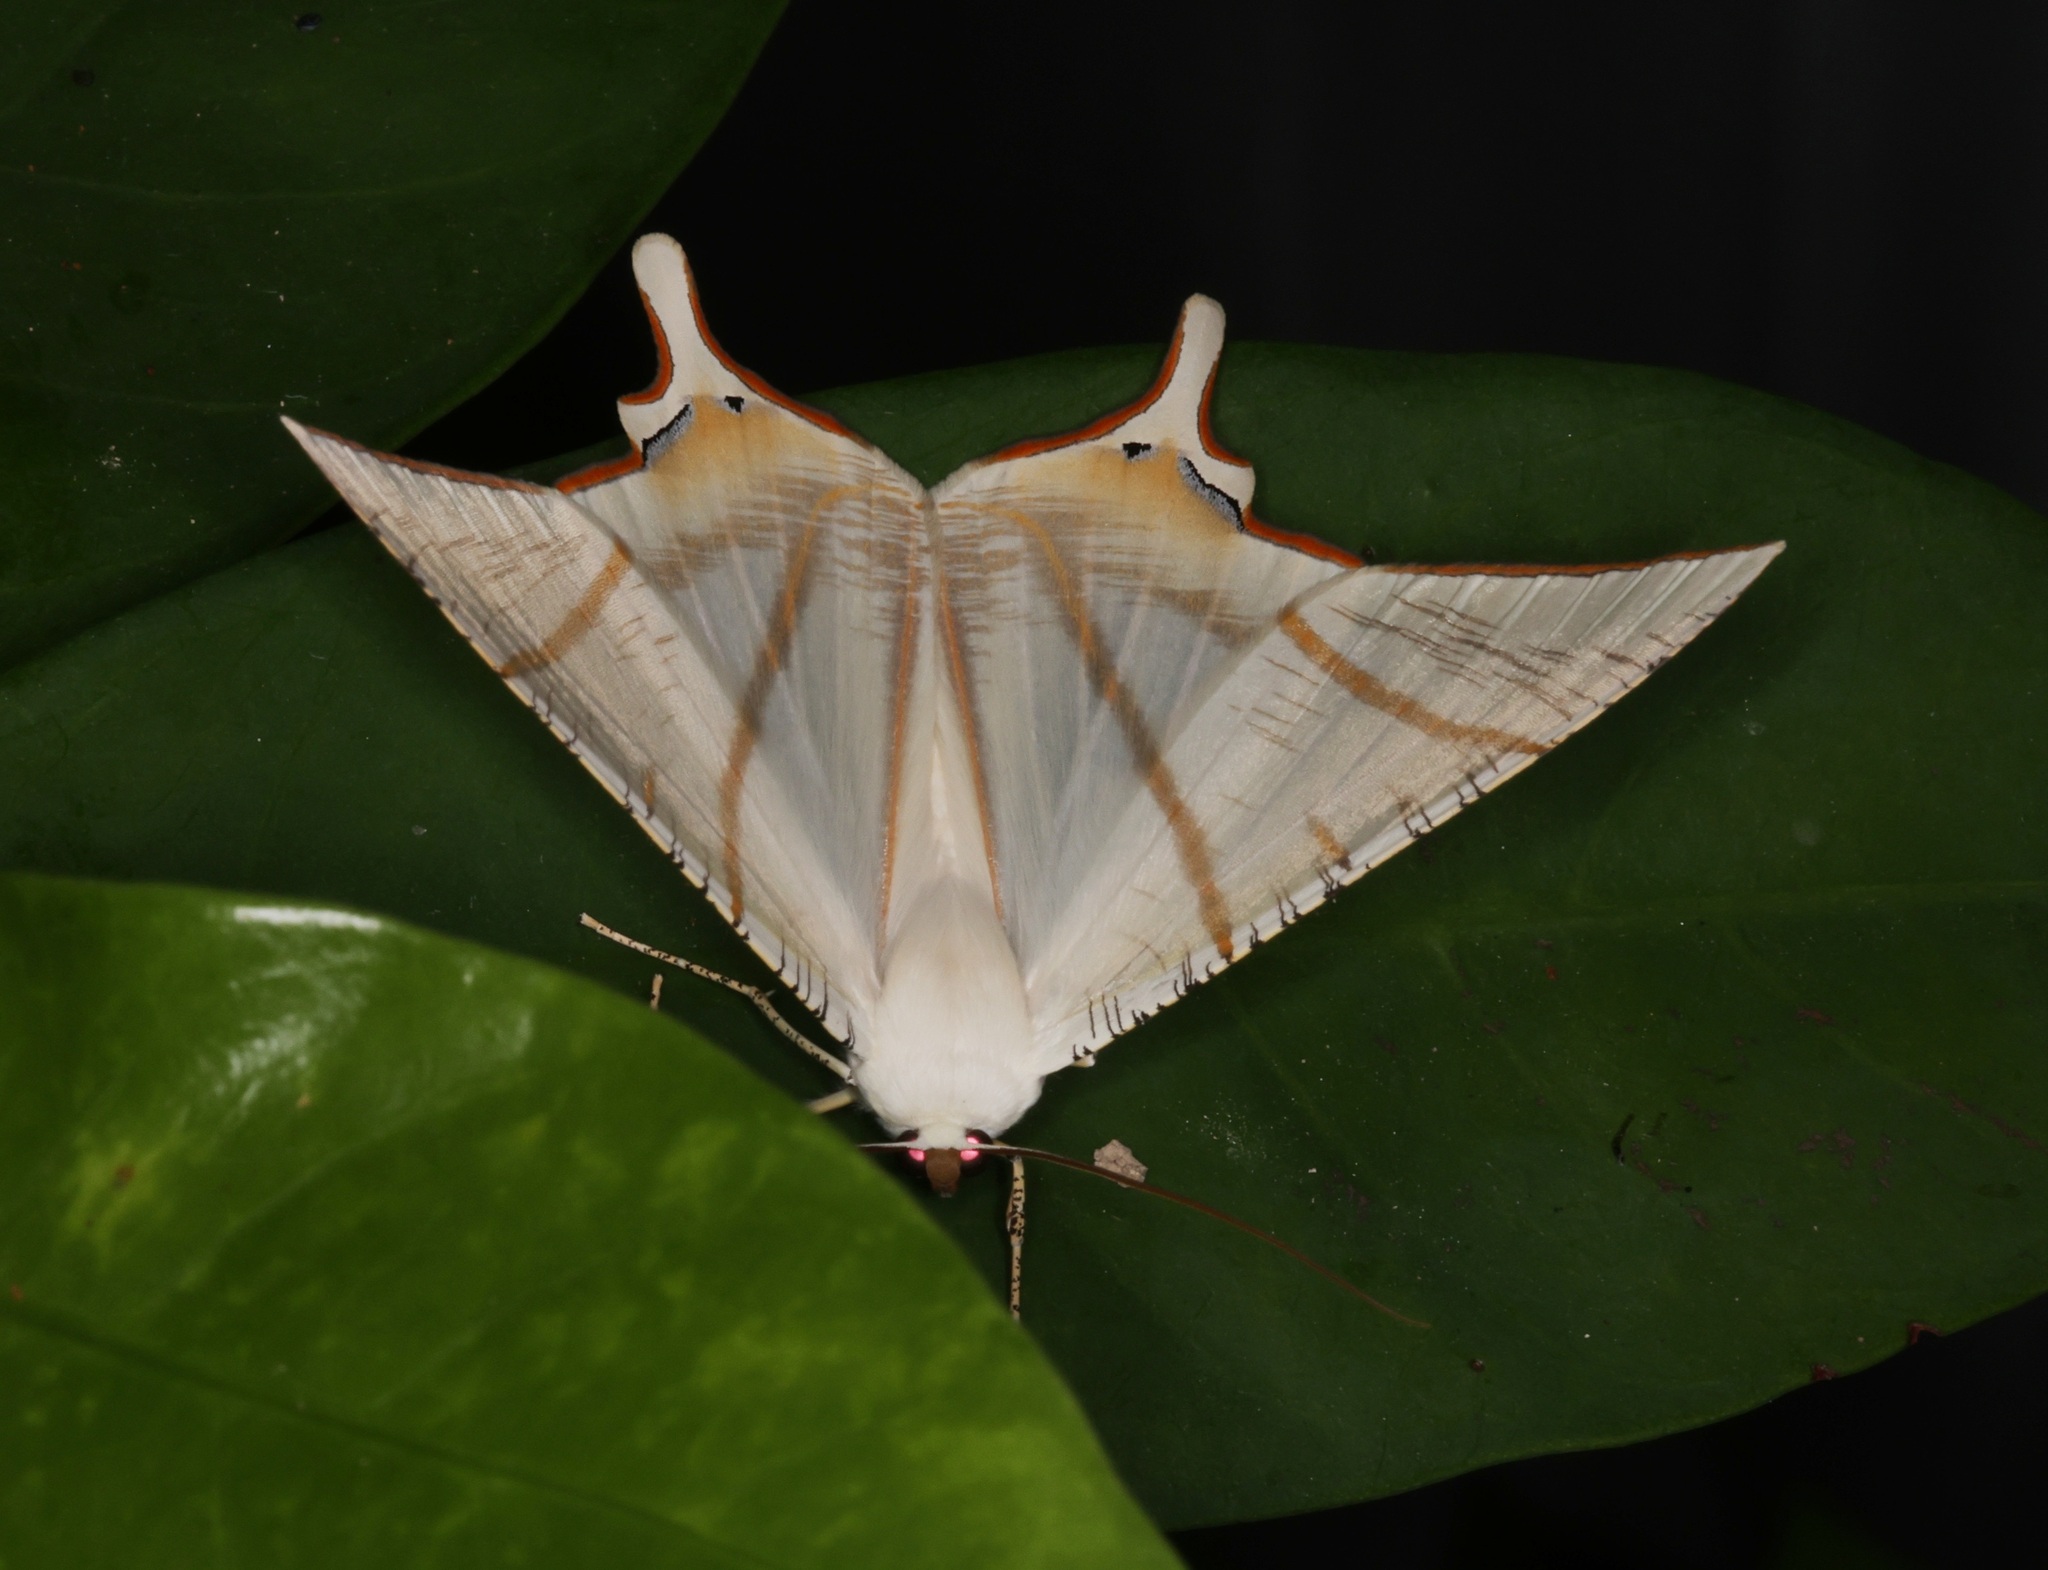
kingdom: Animalia
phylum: Arthropoda
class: Insecta
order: Lepidoptera
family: Geometridae
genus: Ourapteryx
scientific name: Ourapteryx clara
